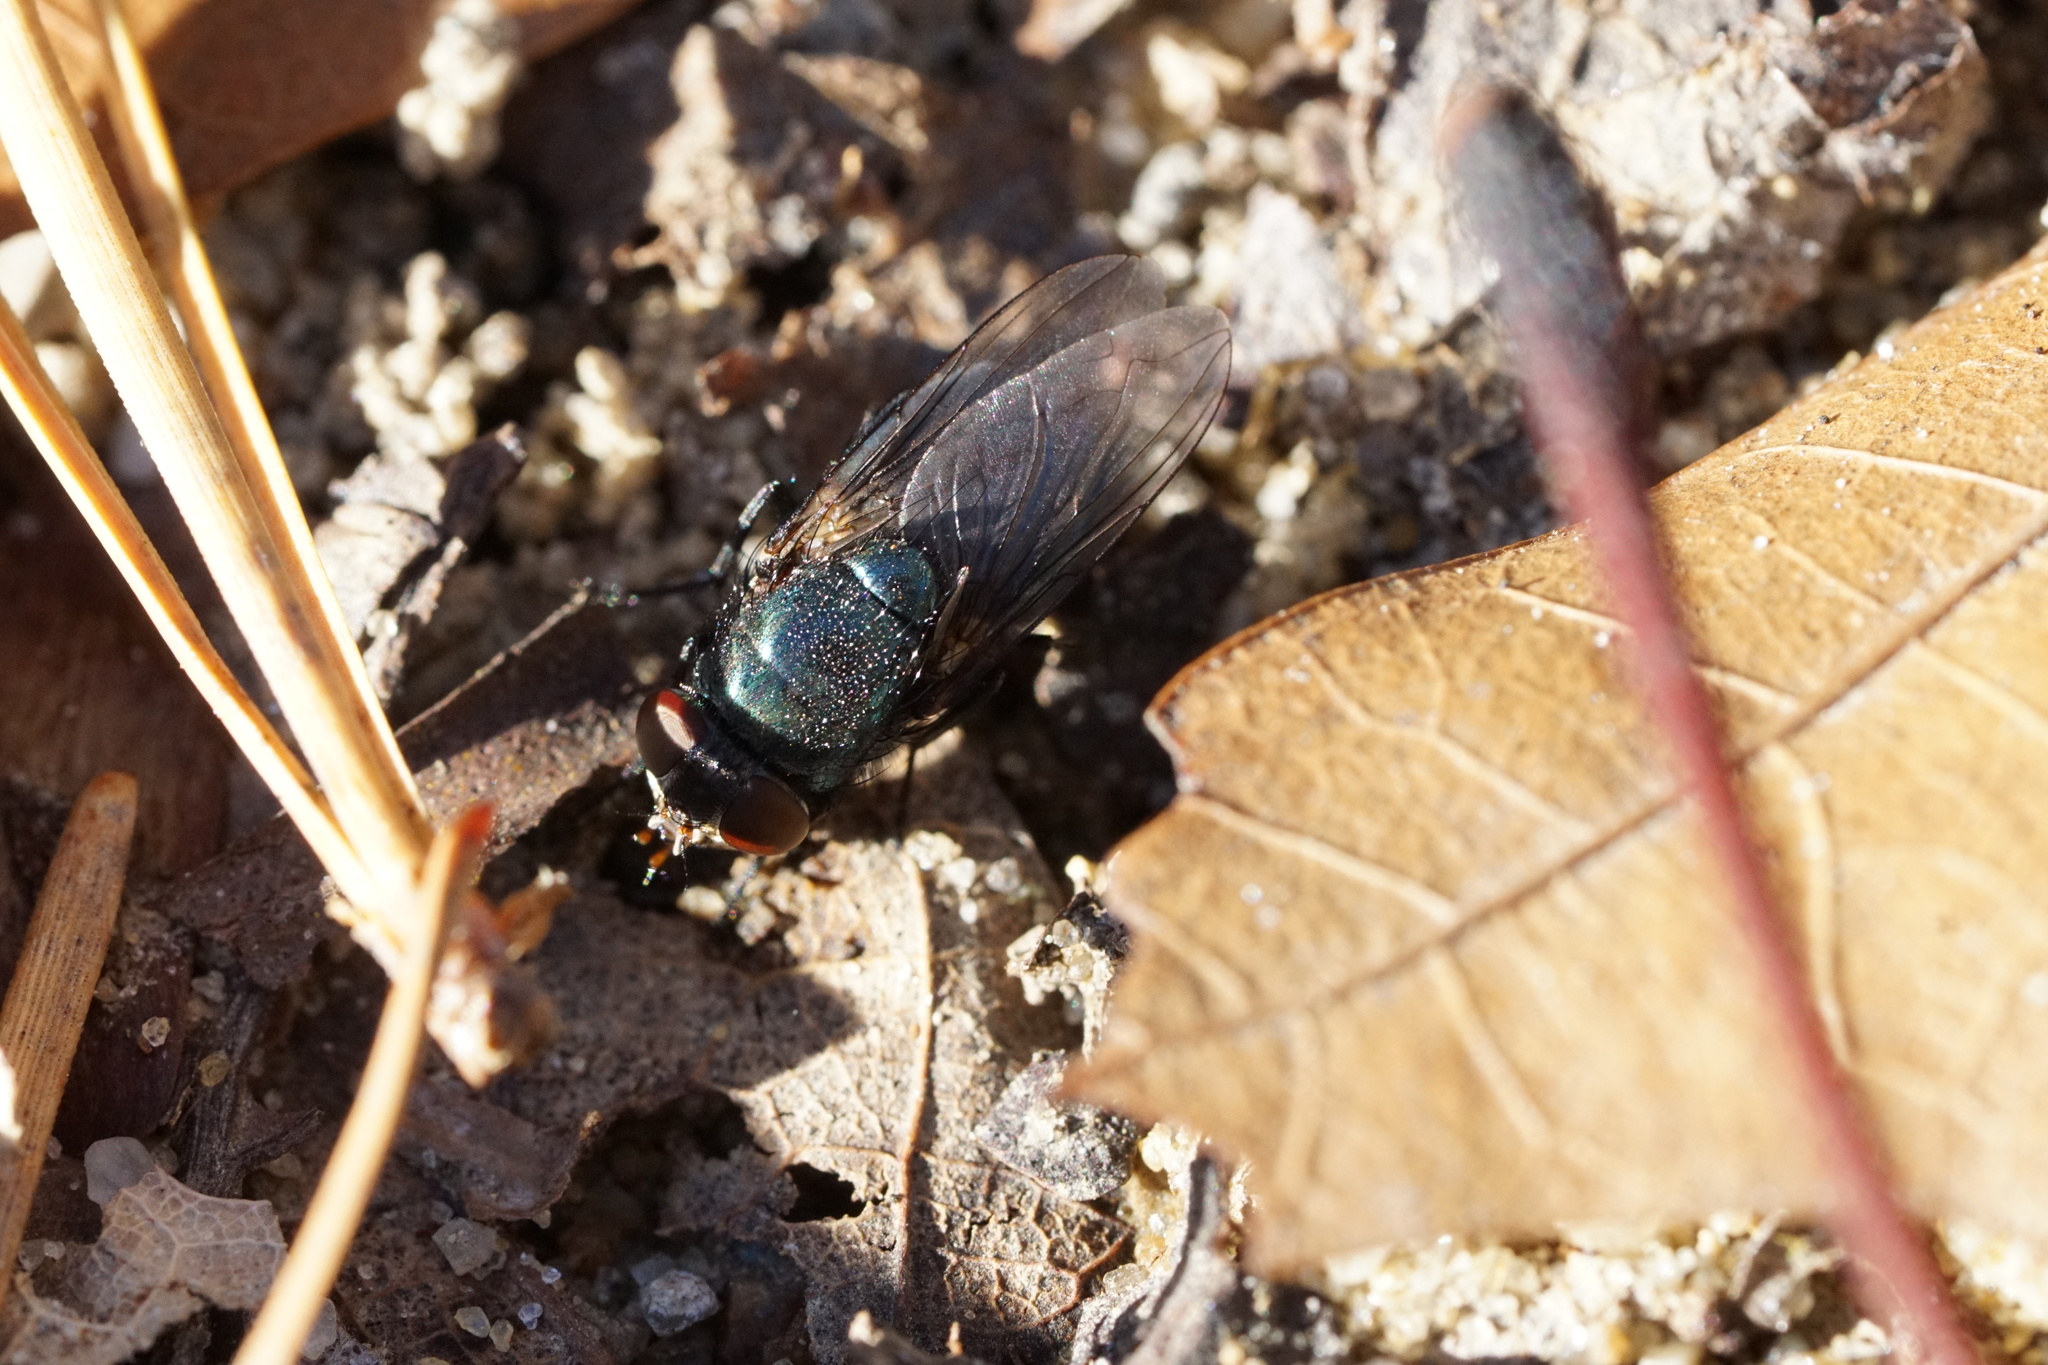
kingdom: Animalia
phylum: Arthropoda
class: Insecta
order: Diptera
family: Calliphoridae
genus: Phormia
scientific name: Phormia regina
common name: Black blow fly
